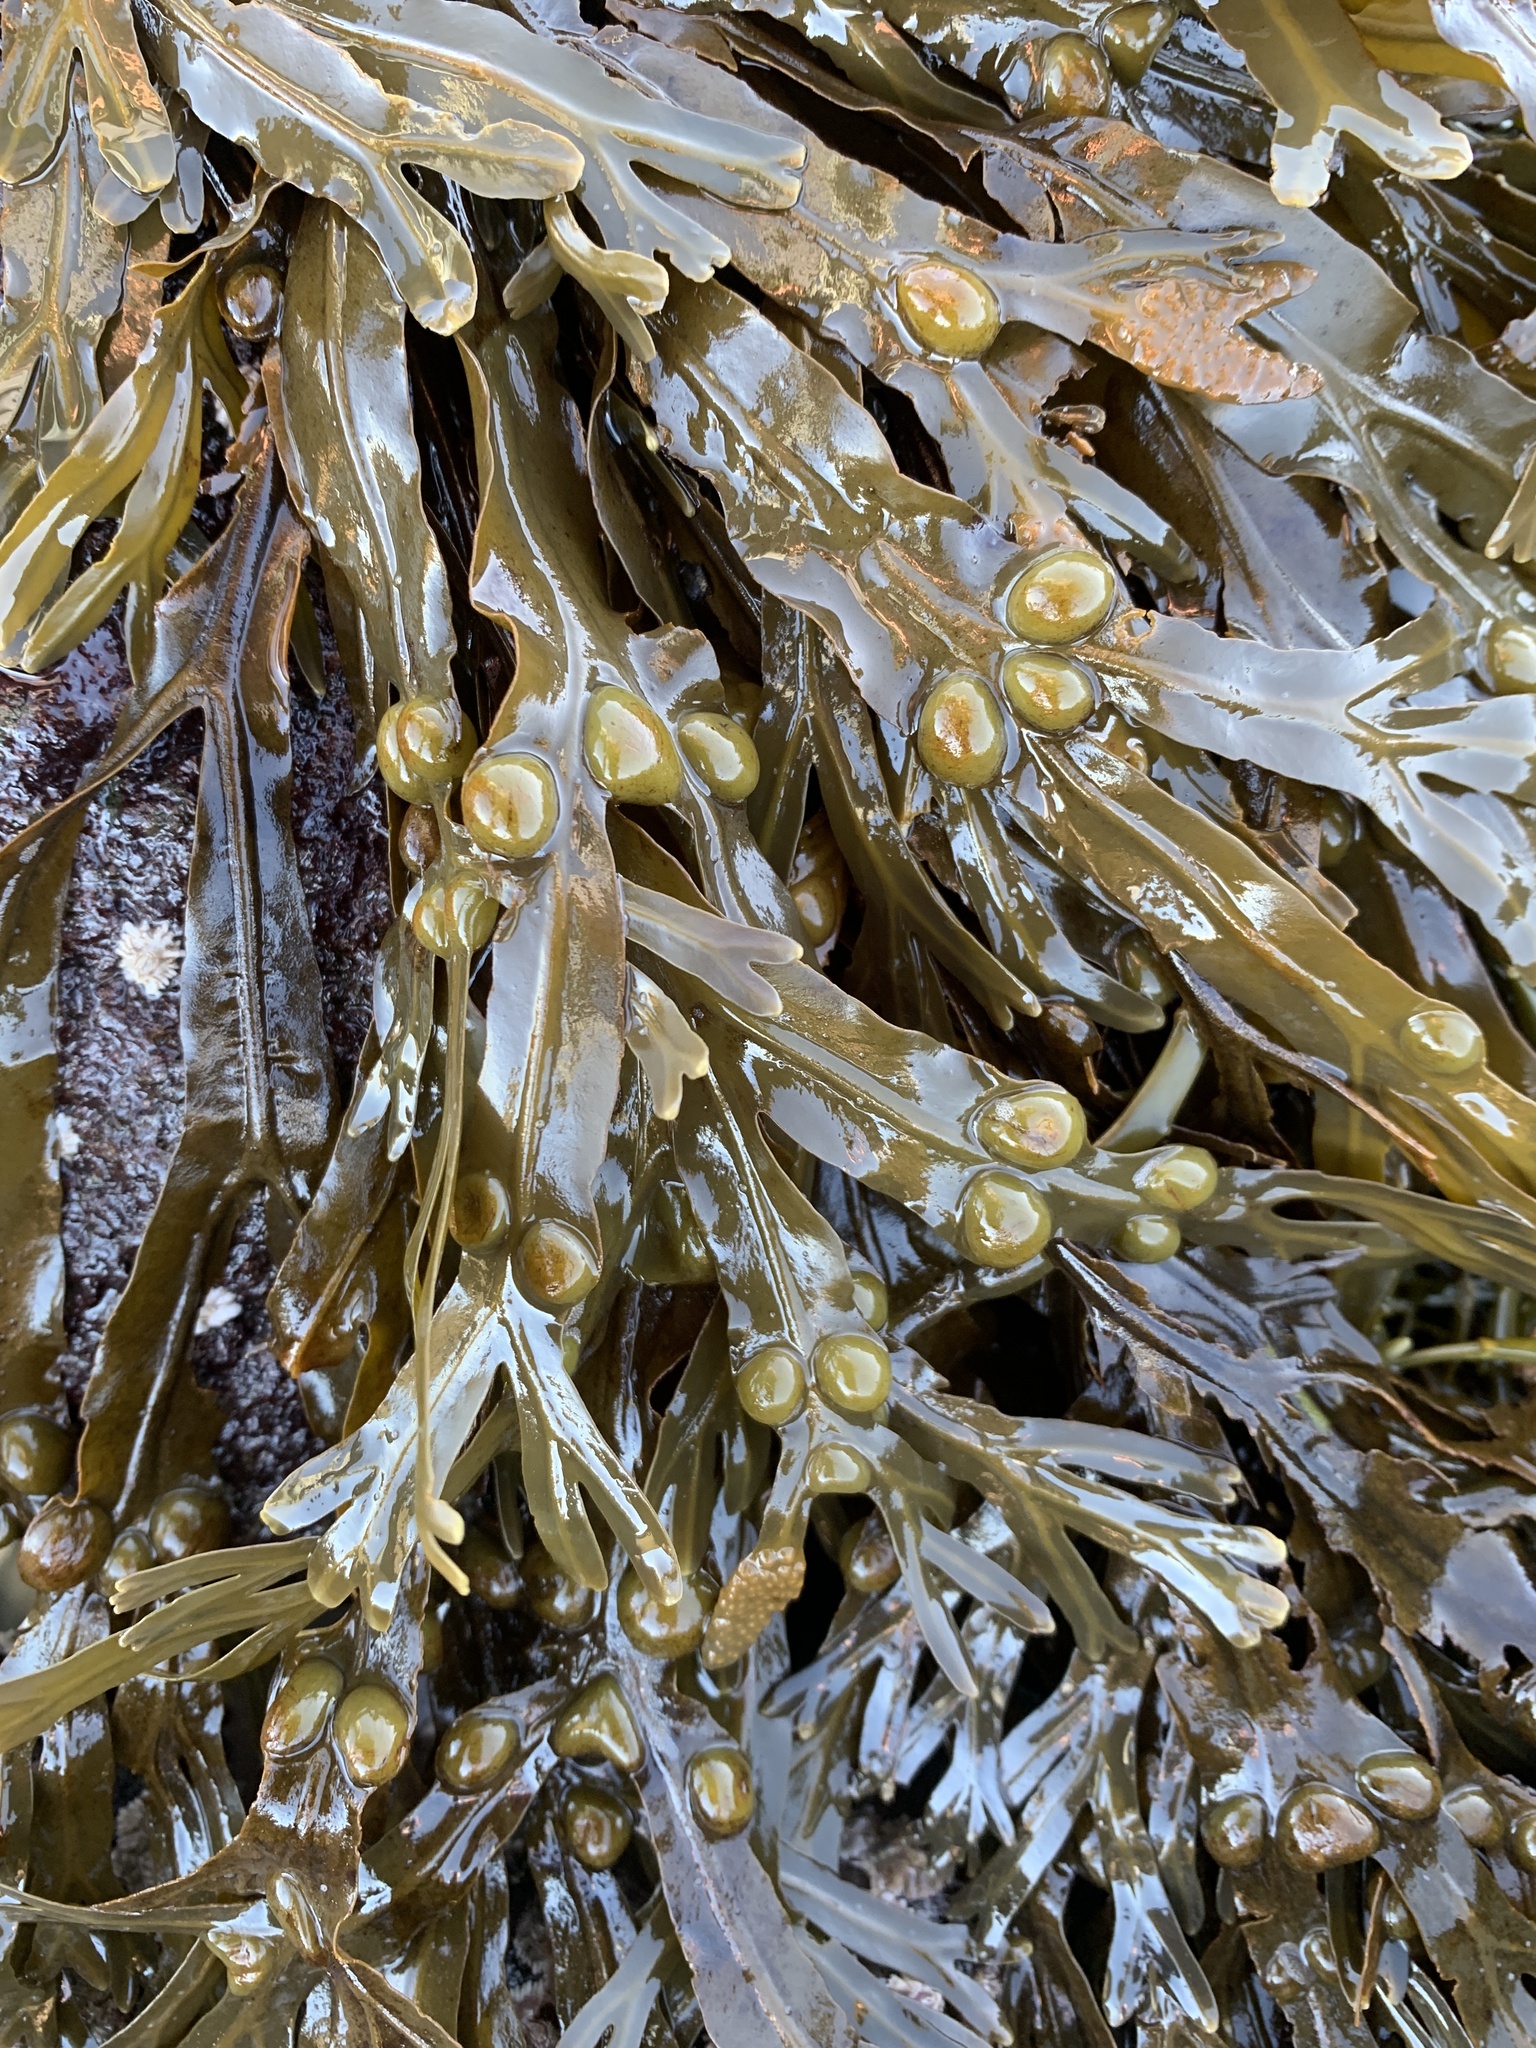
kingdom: Chromista
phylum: Ochrophyta
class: Phaeophyceae
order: Fucales
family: Fucaceae
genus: Fucus
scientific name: Fucus vesiculosus
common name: Bladder wrack
